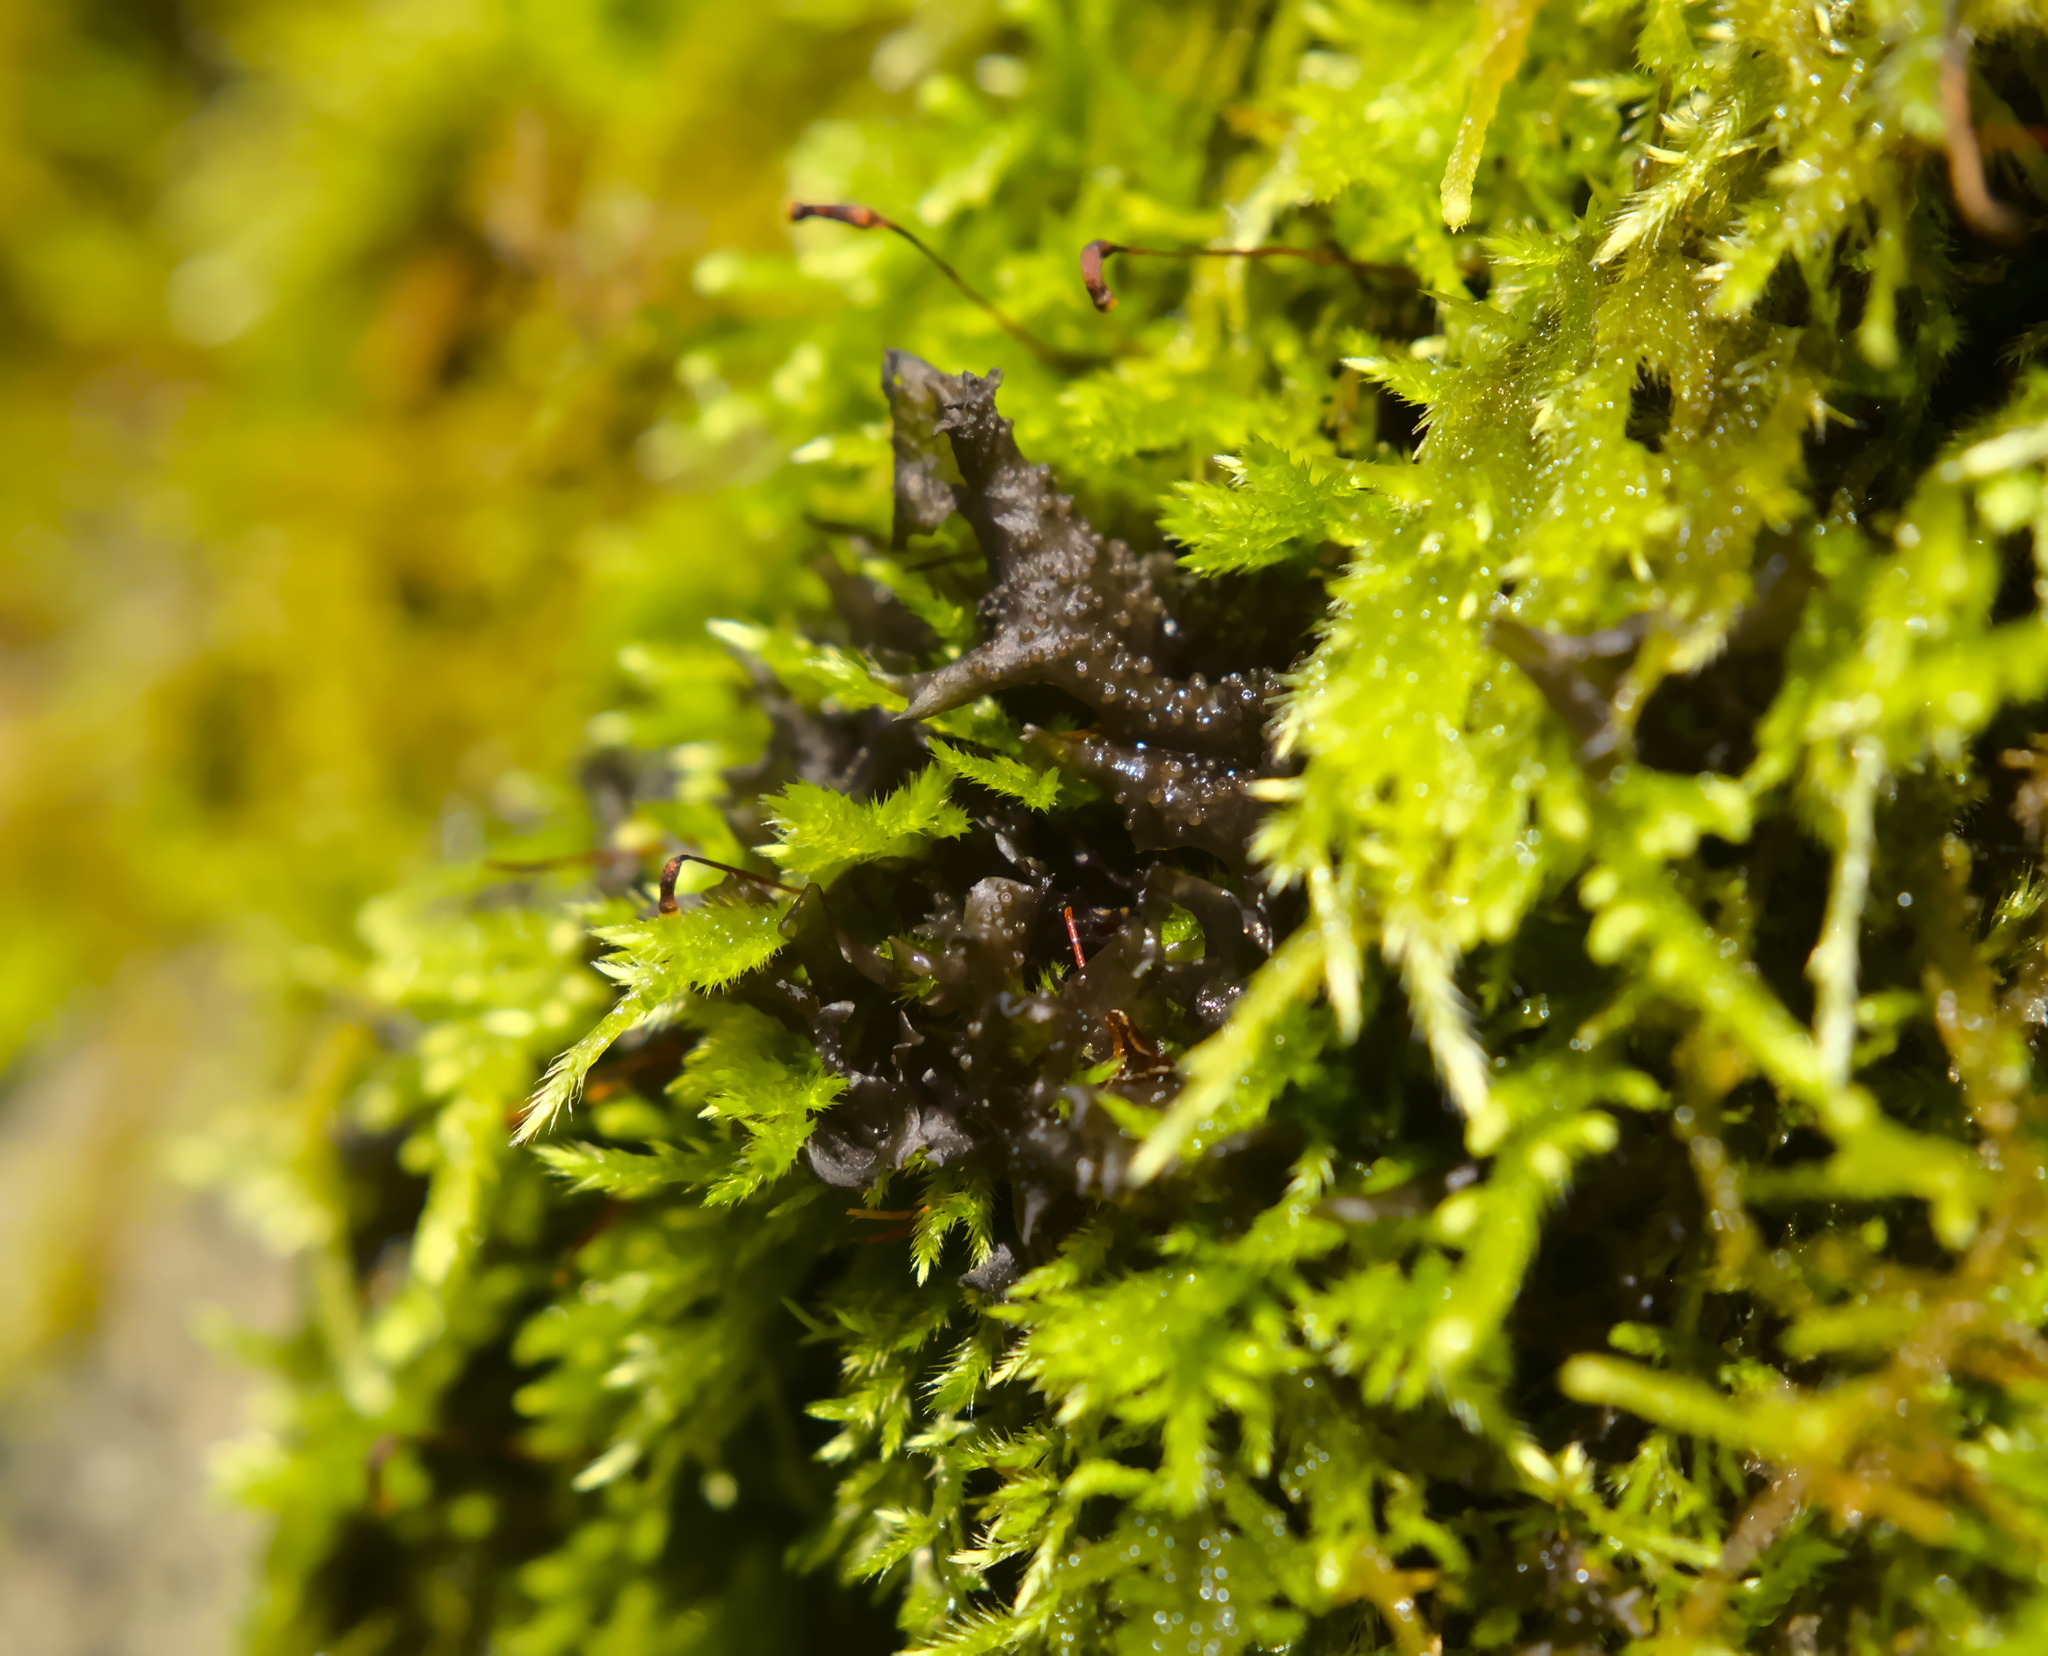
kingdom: Fungi
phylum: Ascomycota
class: Lecanoromycetes
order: Peltigerales
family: Collemataceae
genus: Scytinium
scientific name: Scytinium palmatum
